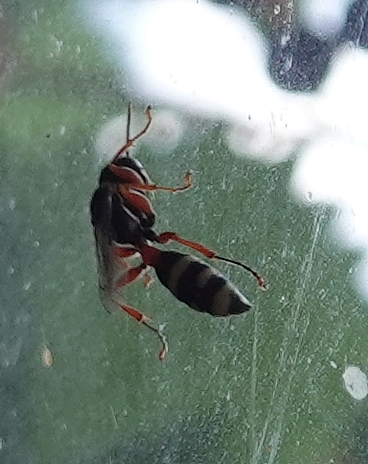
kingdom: Animalia
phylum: Arthropoda
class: Insecta
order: Hymenoptera
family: Crabronidae
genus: Mellinus
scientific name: Mellinus rufinodus
